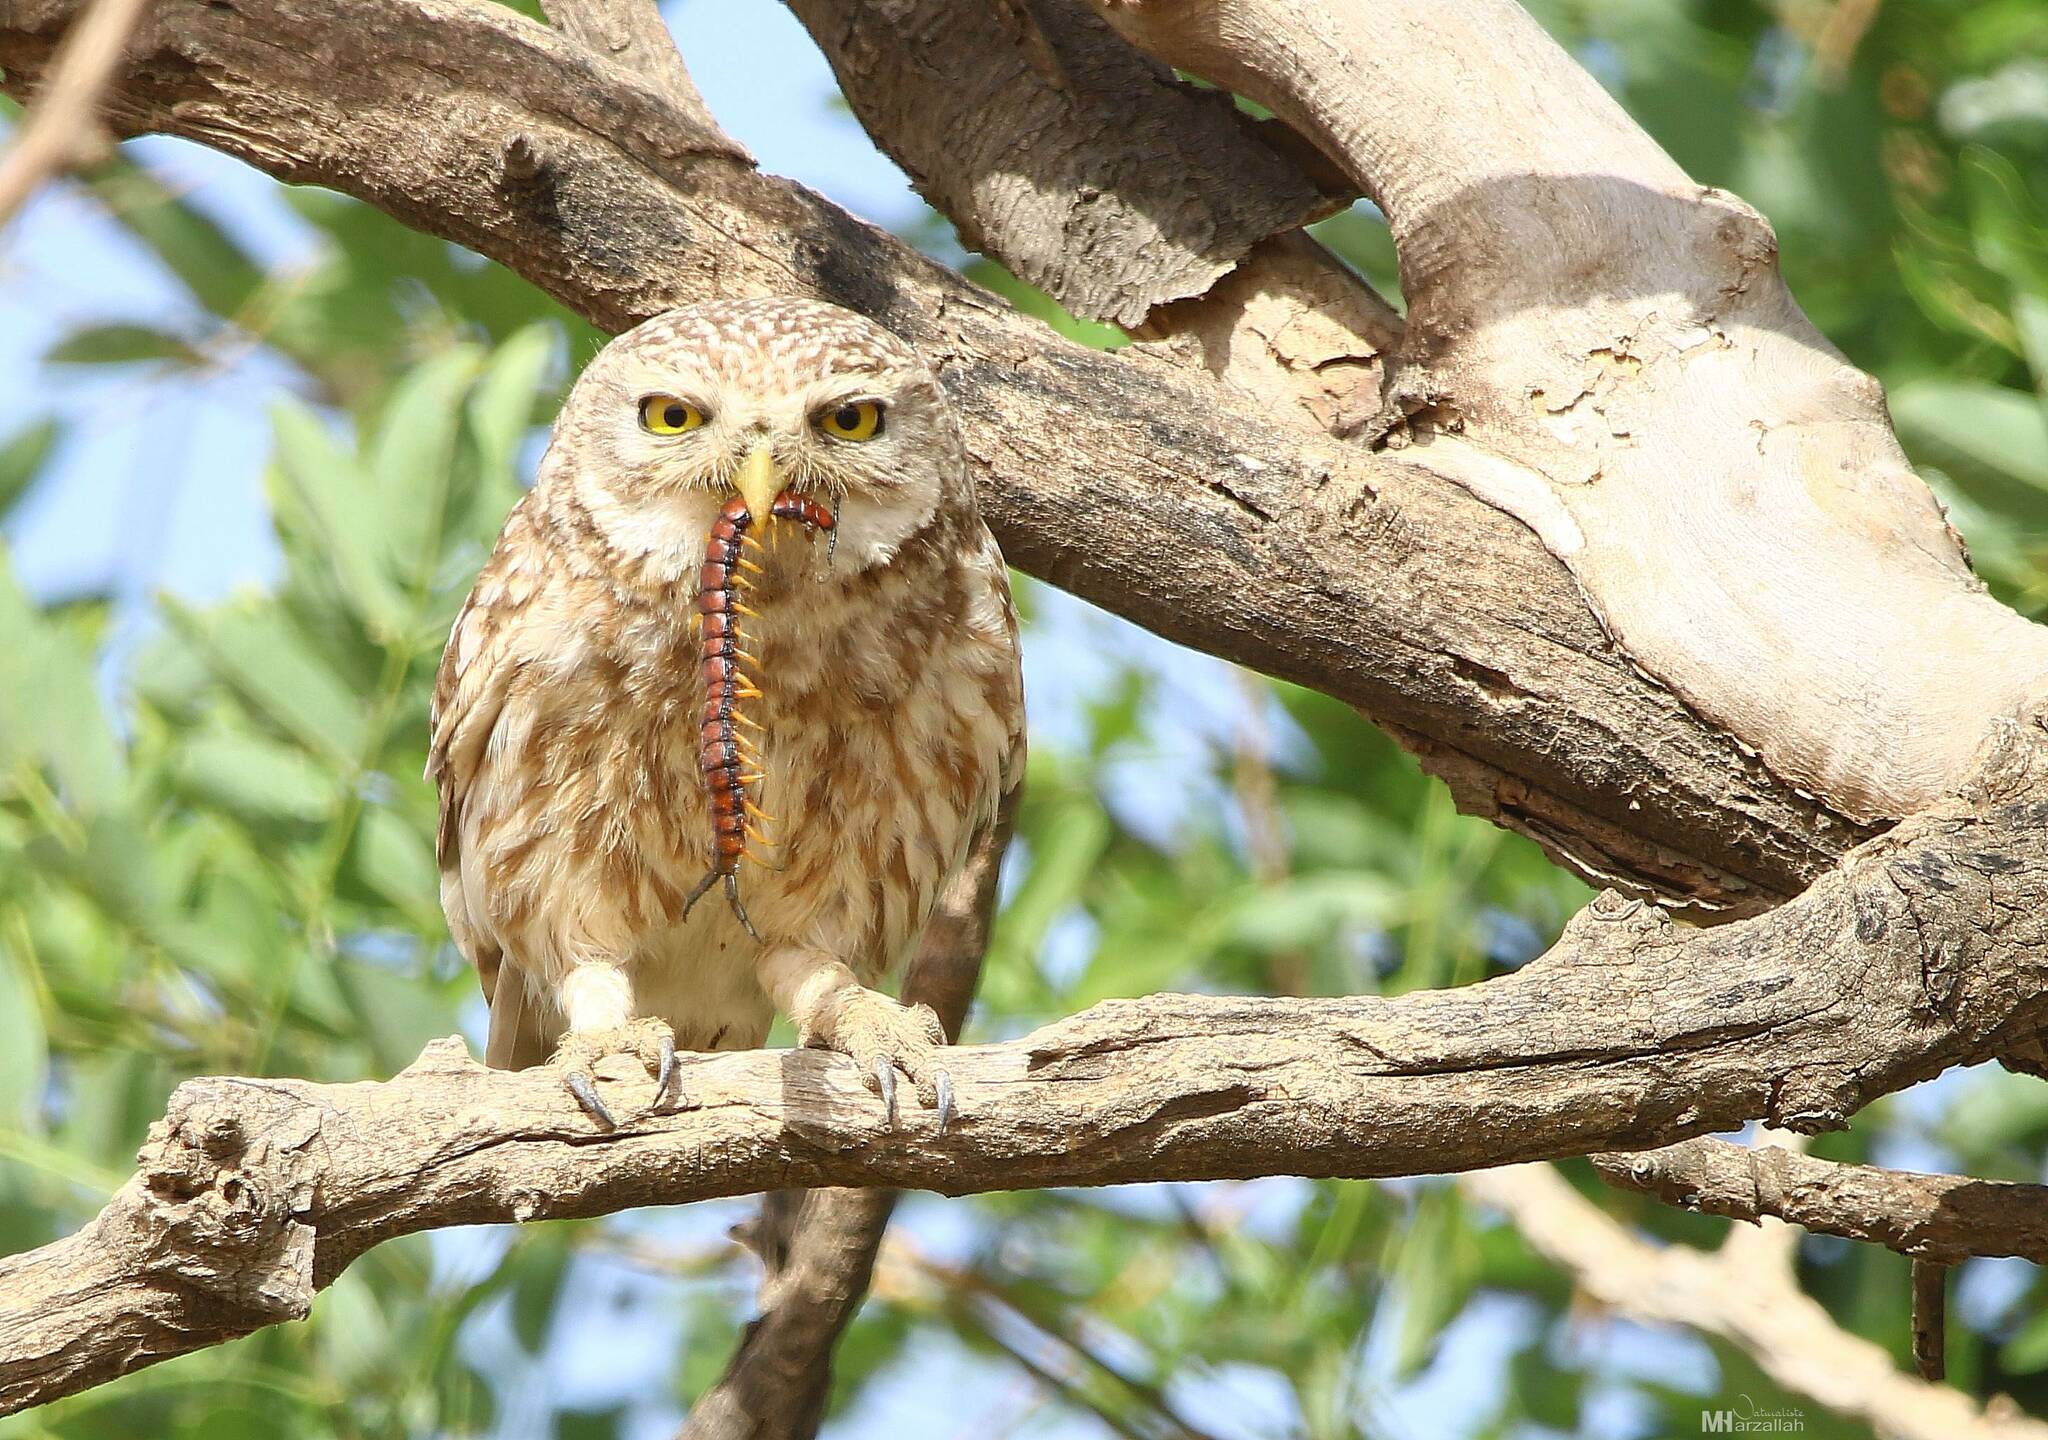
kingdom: Animalia
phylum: Chordata
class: Aves
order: Strigiformes
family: Strigidae
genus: Athene
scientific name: Athene noctua
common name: Little owl
